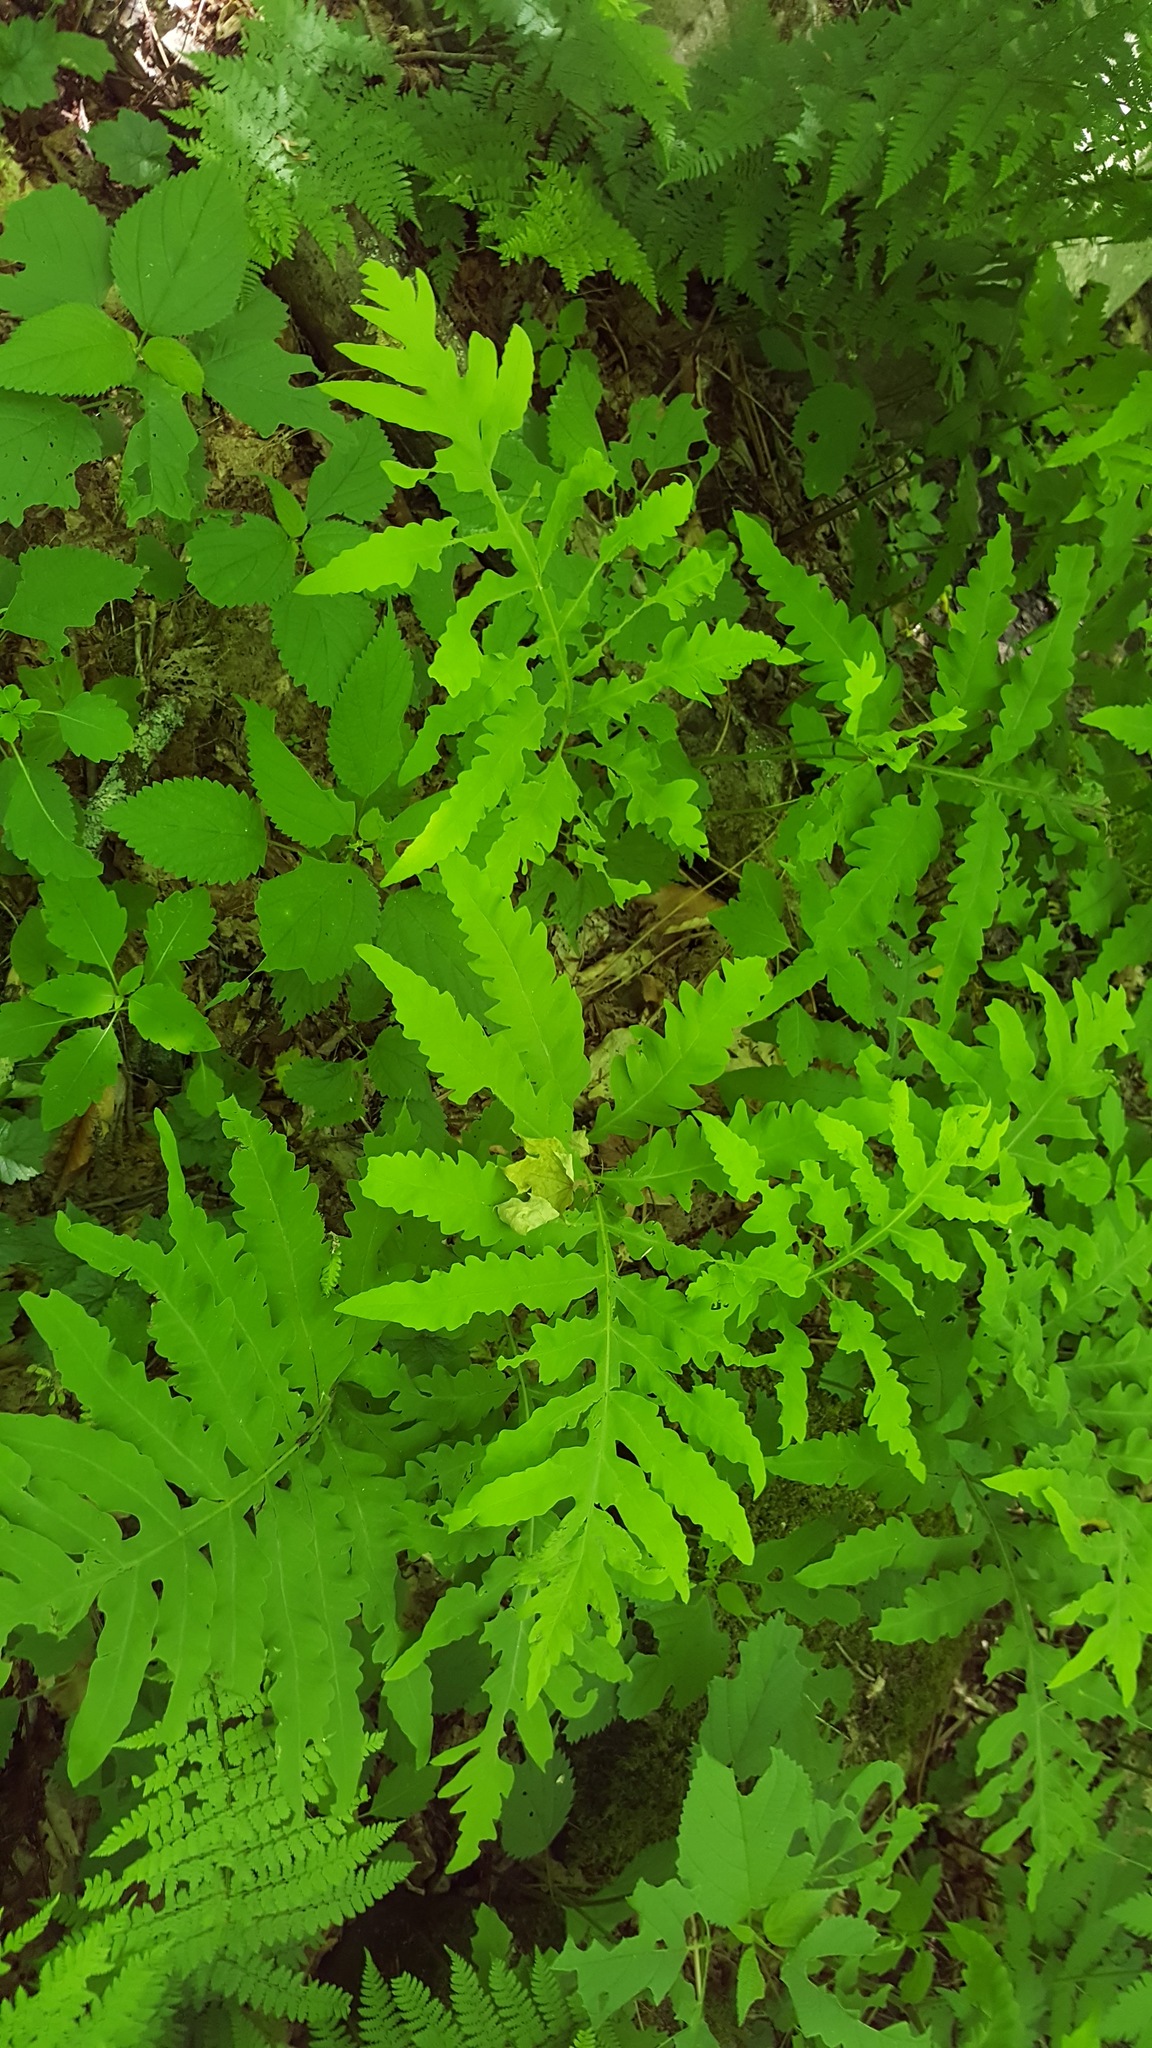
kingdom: Plantae
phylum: Tracheophyta
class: Polypodiopsida
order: Polypodiales
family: Onocleaceae
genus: Onoclea
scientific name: Onoclea sensibilis
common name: Sensitive fern
